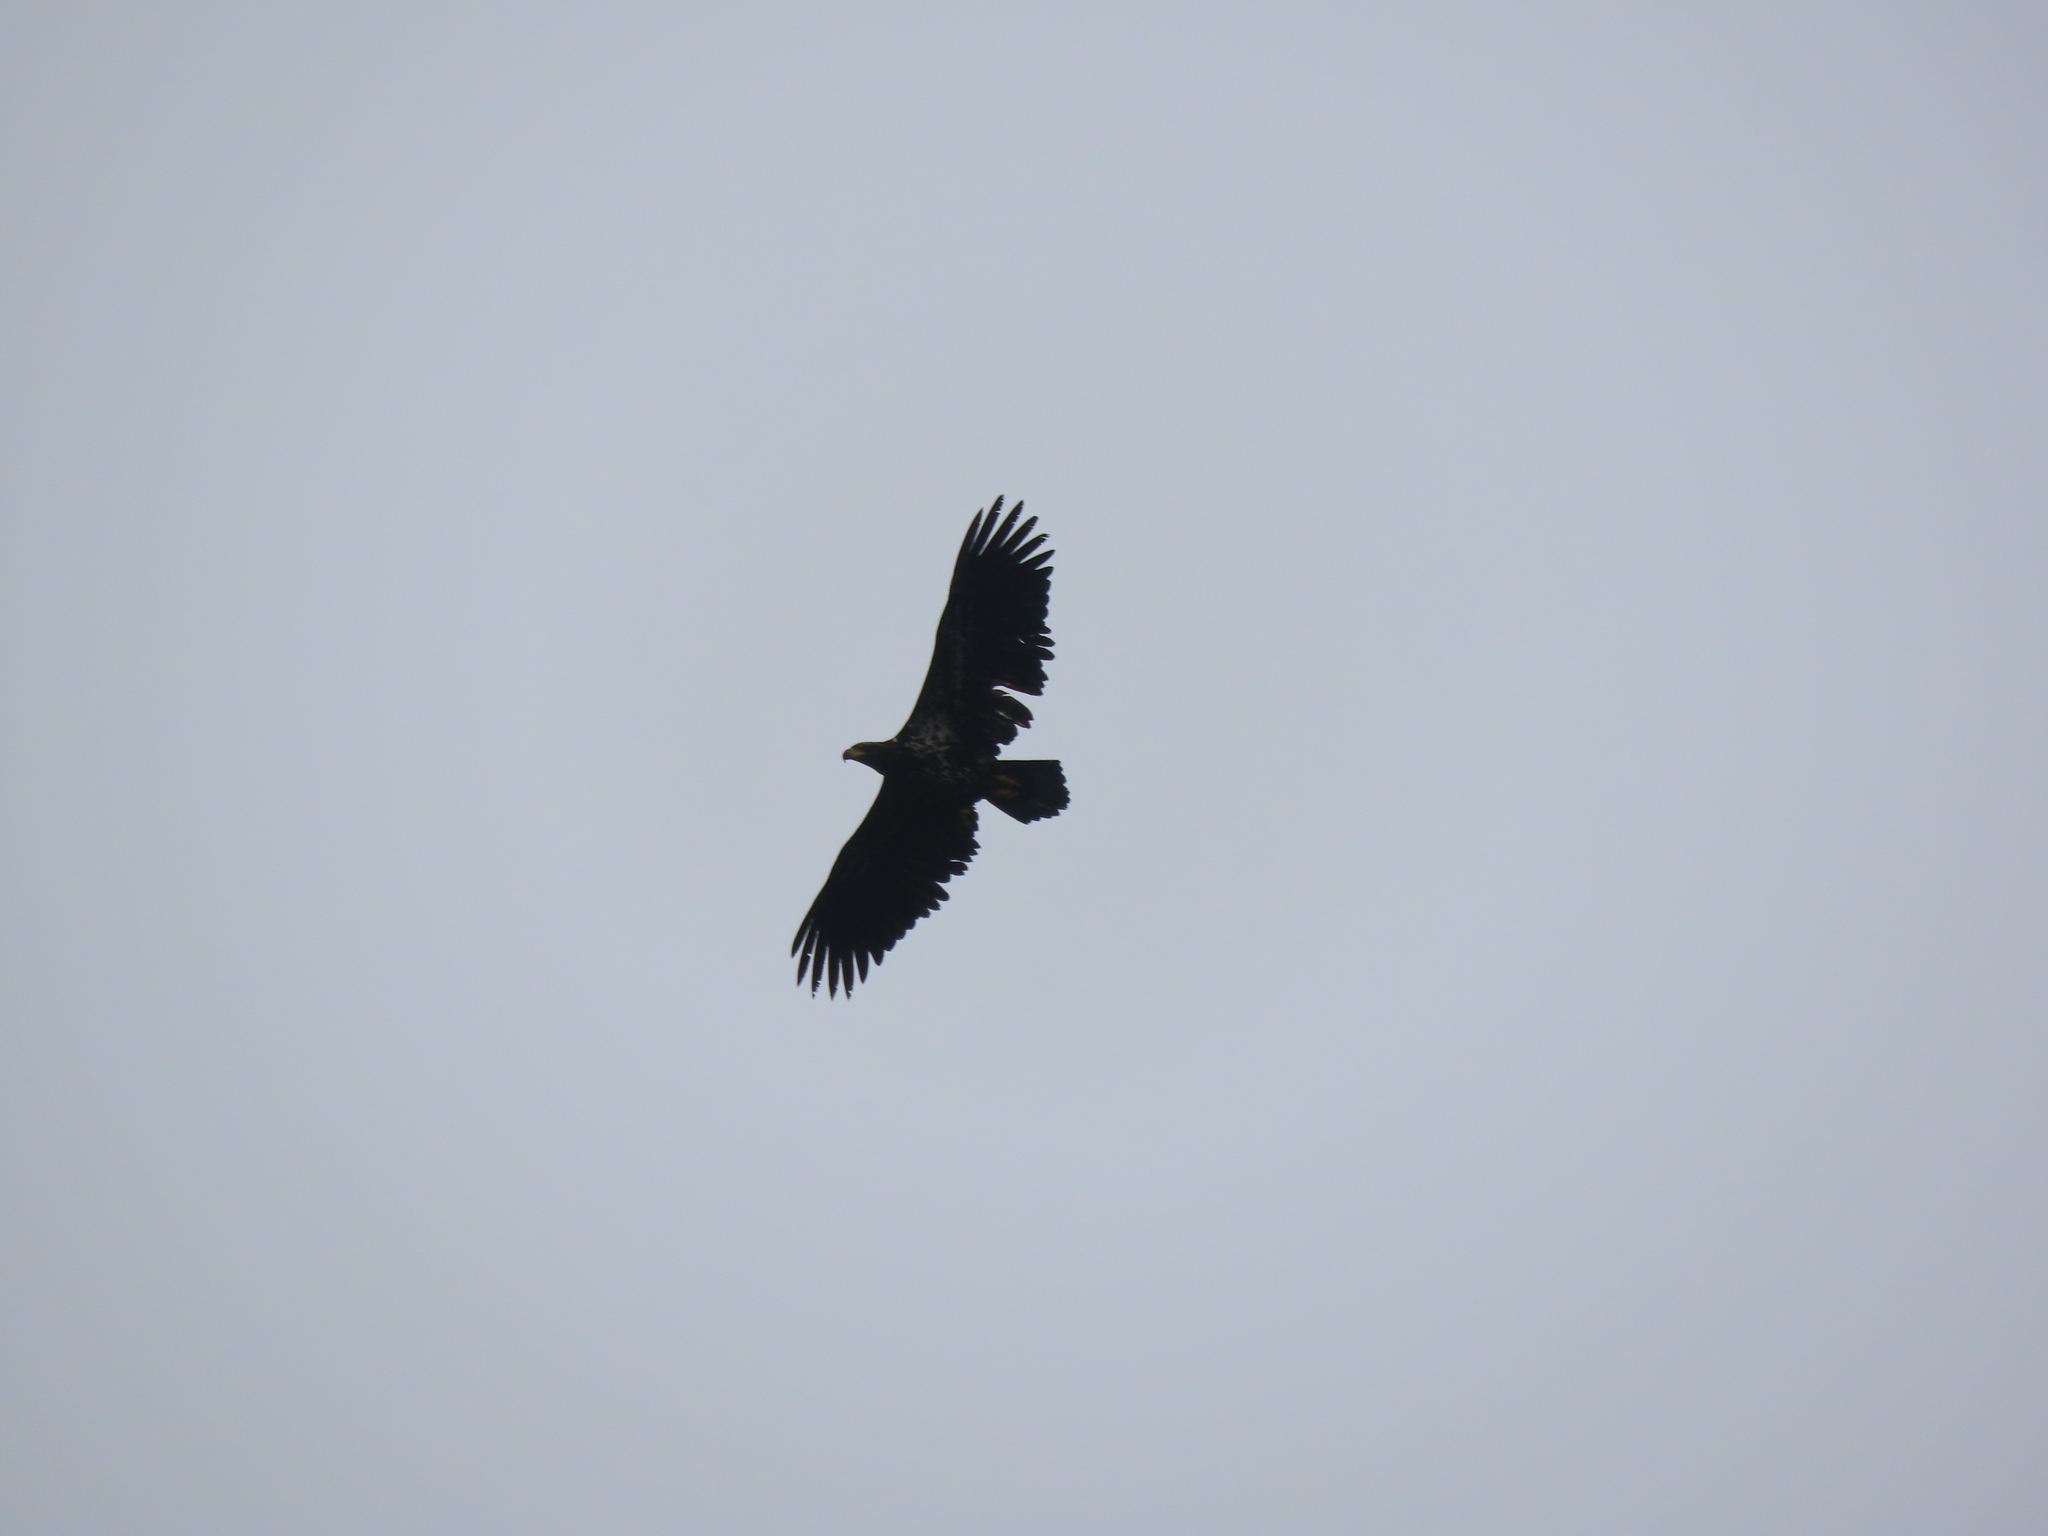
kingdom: Animalia
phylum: Chordata
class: Aves
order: Accipitriformes
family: Accipitridae
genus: Haliaeetus
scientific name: Haliaeetus leucocephalus
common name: Bald eagle
